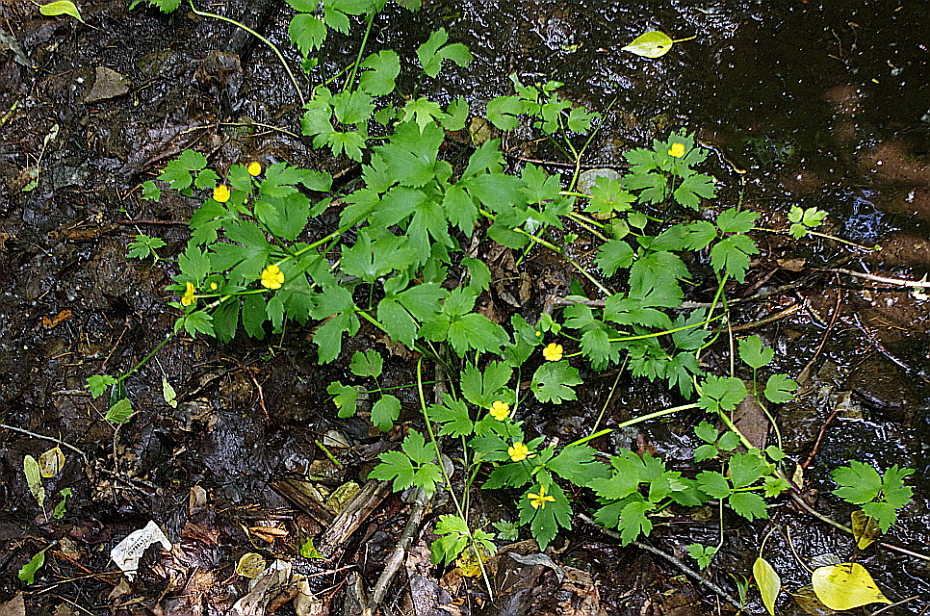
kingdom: Plantae
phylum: Tracheophyta
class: Magnoliopsida
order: Ranunculales
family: Ranunculaceae
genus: Ranunculus
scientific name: Ranunculus repens
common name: Creeping buttercup
